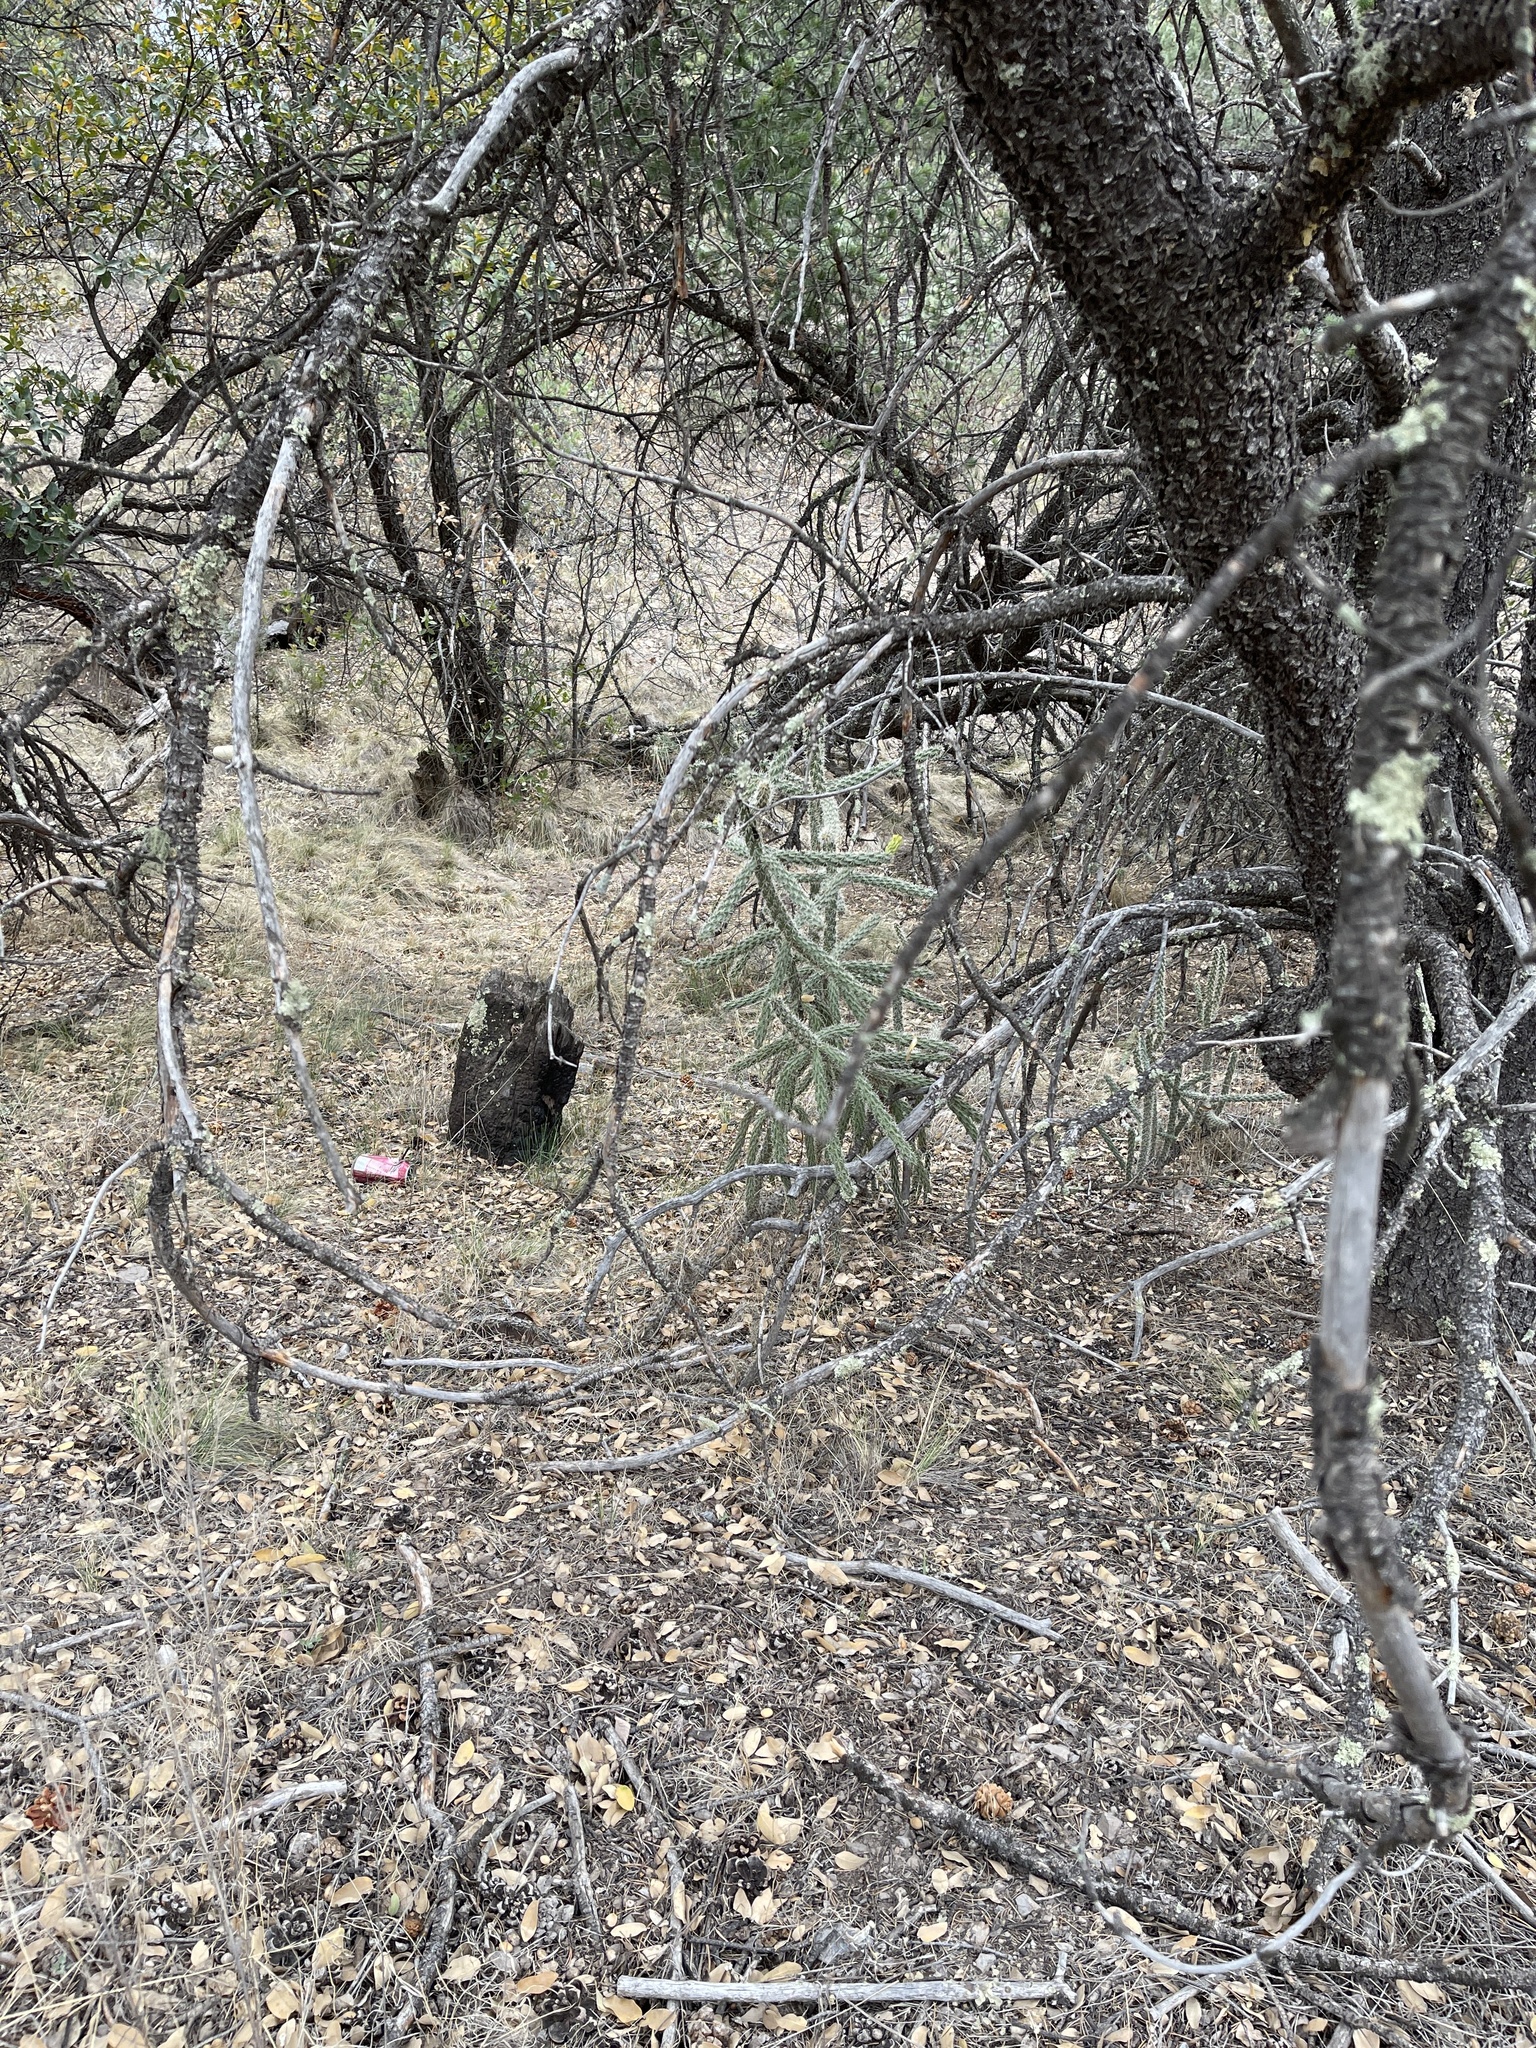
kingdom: Plantae
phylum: Tracheophyta
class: Magnoliopsida
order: Caryophyllales
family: Cactaceae
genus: Cylindropuntia
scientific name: Cylindropuntia imbricata
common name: Candelabrum cactus
